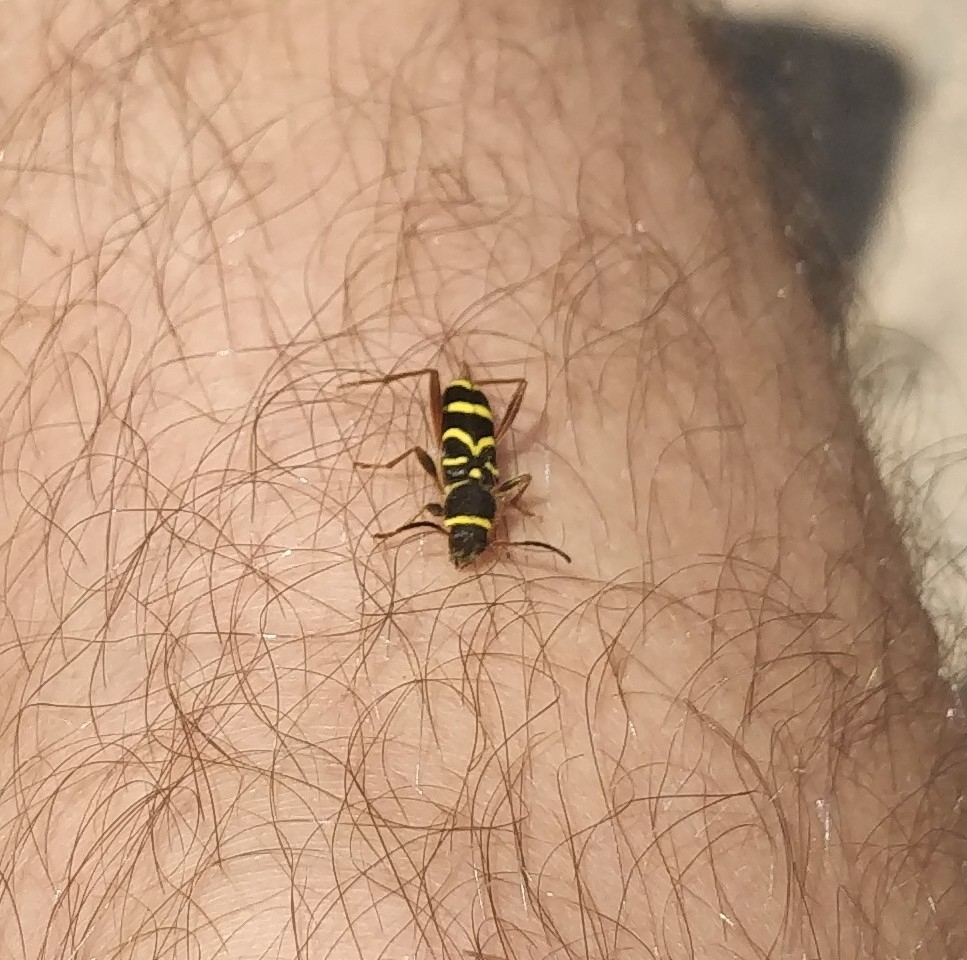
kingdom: Animalia
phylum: Arthropoda
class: Insecta
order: Coleoptera
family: Cerambycidae
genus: Clytus
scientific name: Clytus arietis
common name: Wasp beetle
